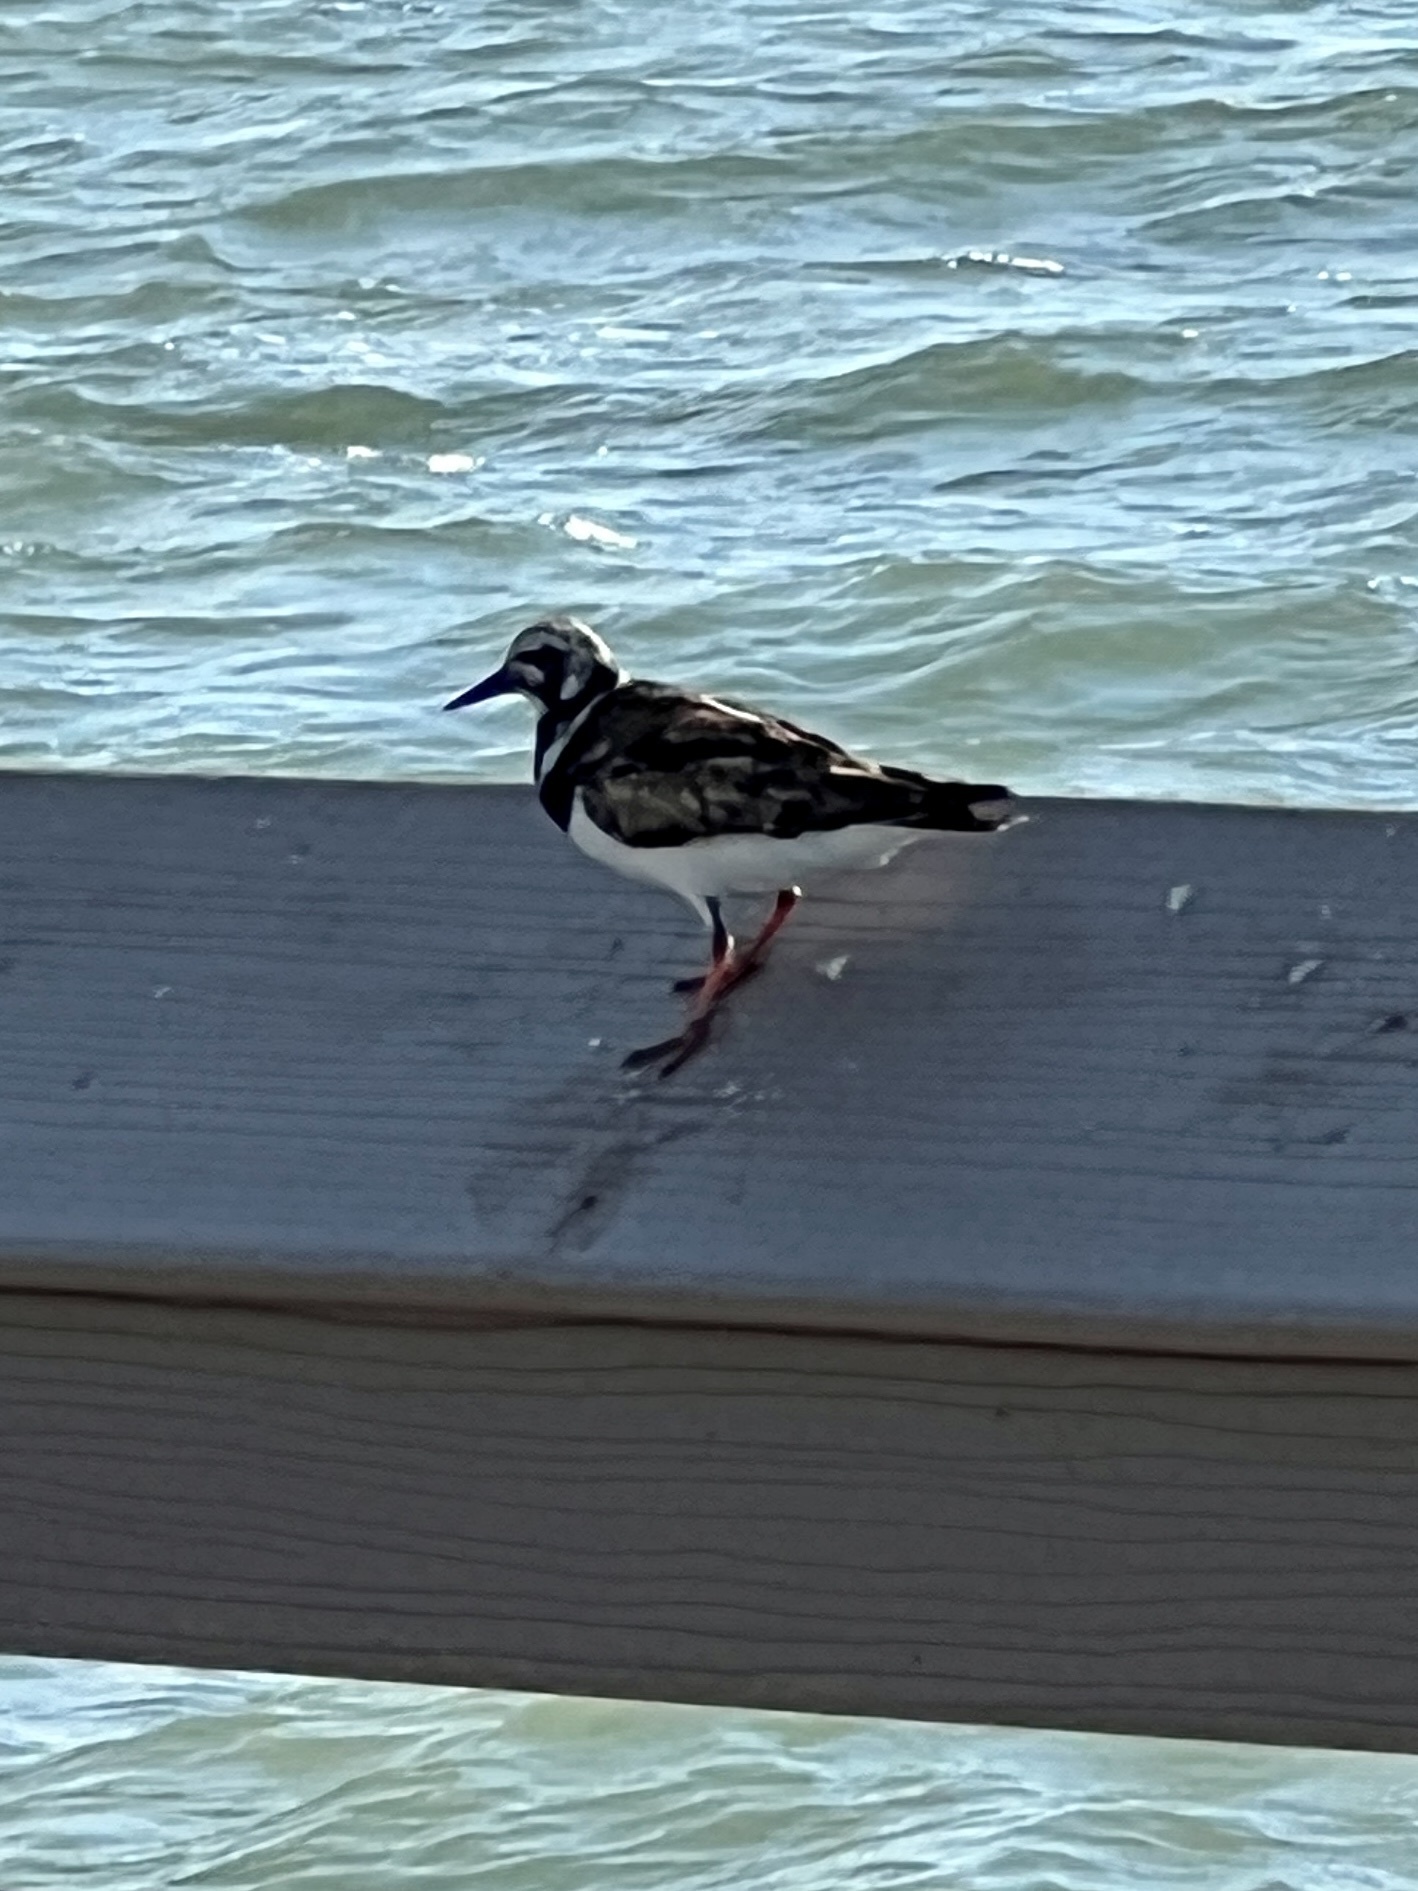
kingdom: Animalia
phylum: Chordata
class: Aves
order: Charadriiformes
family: Scolopacidae
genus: Arenaria
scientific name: Arenaria interpres
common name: Ruddy turnstone
